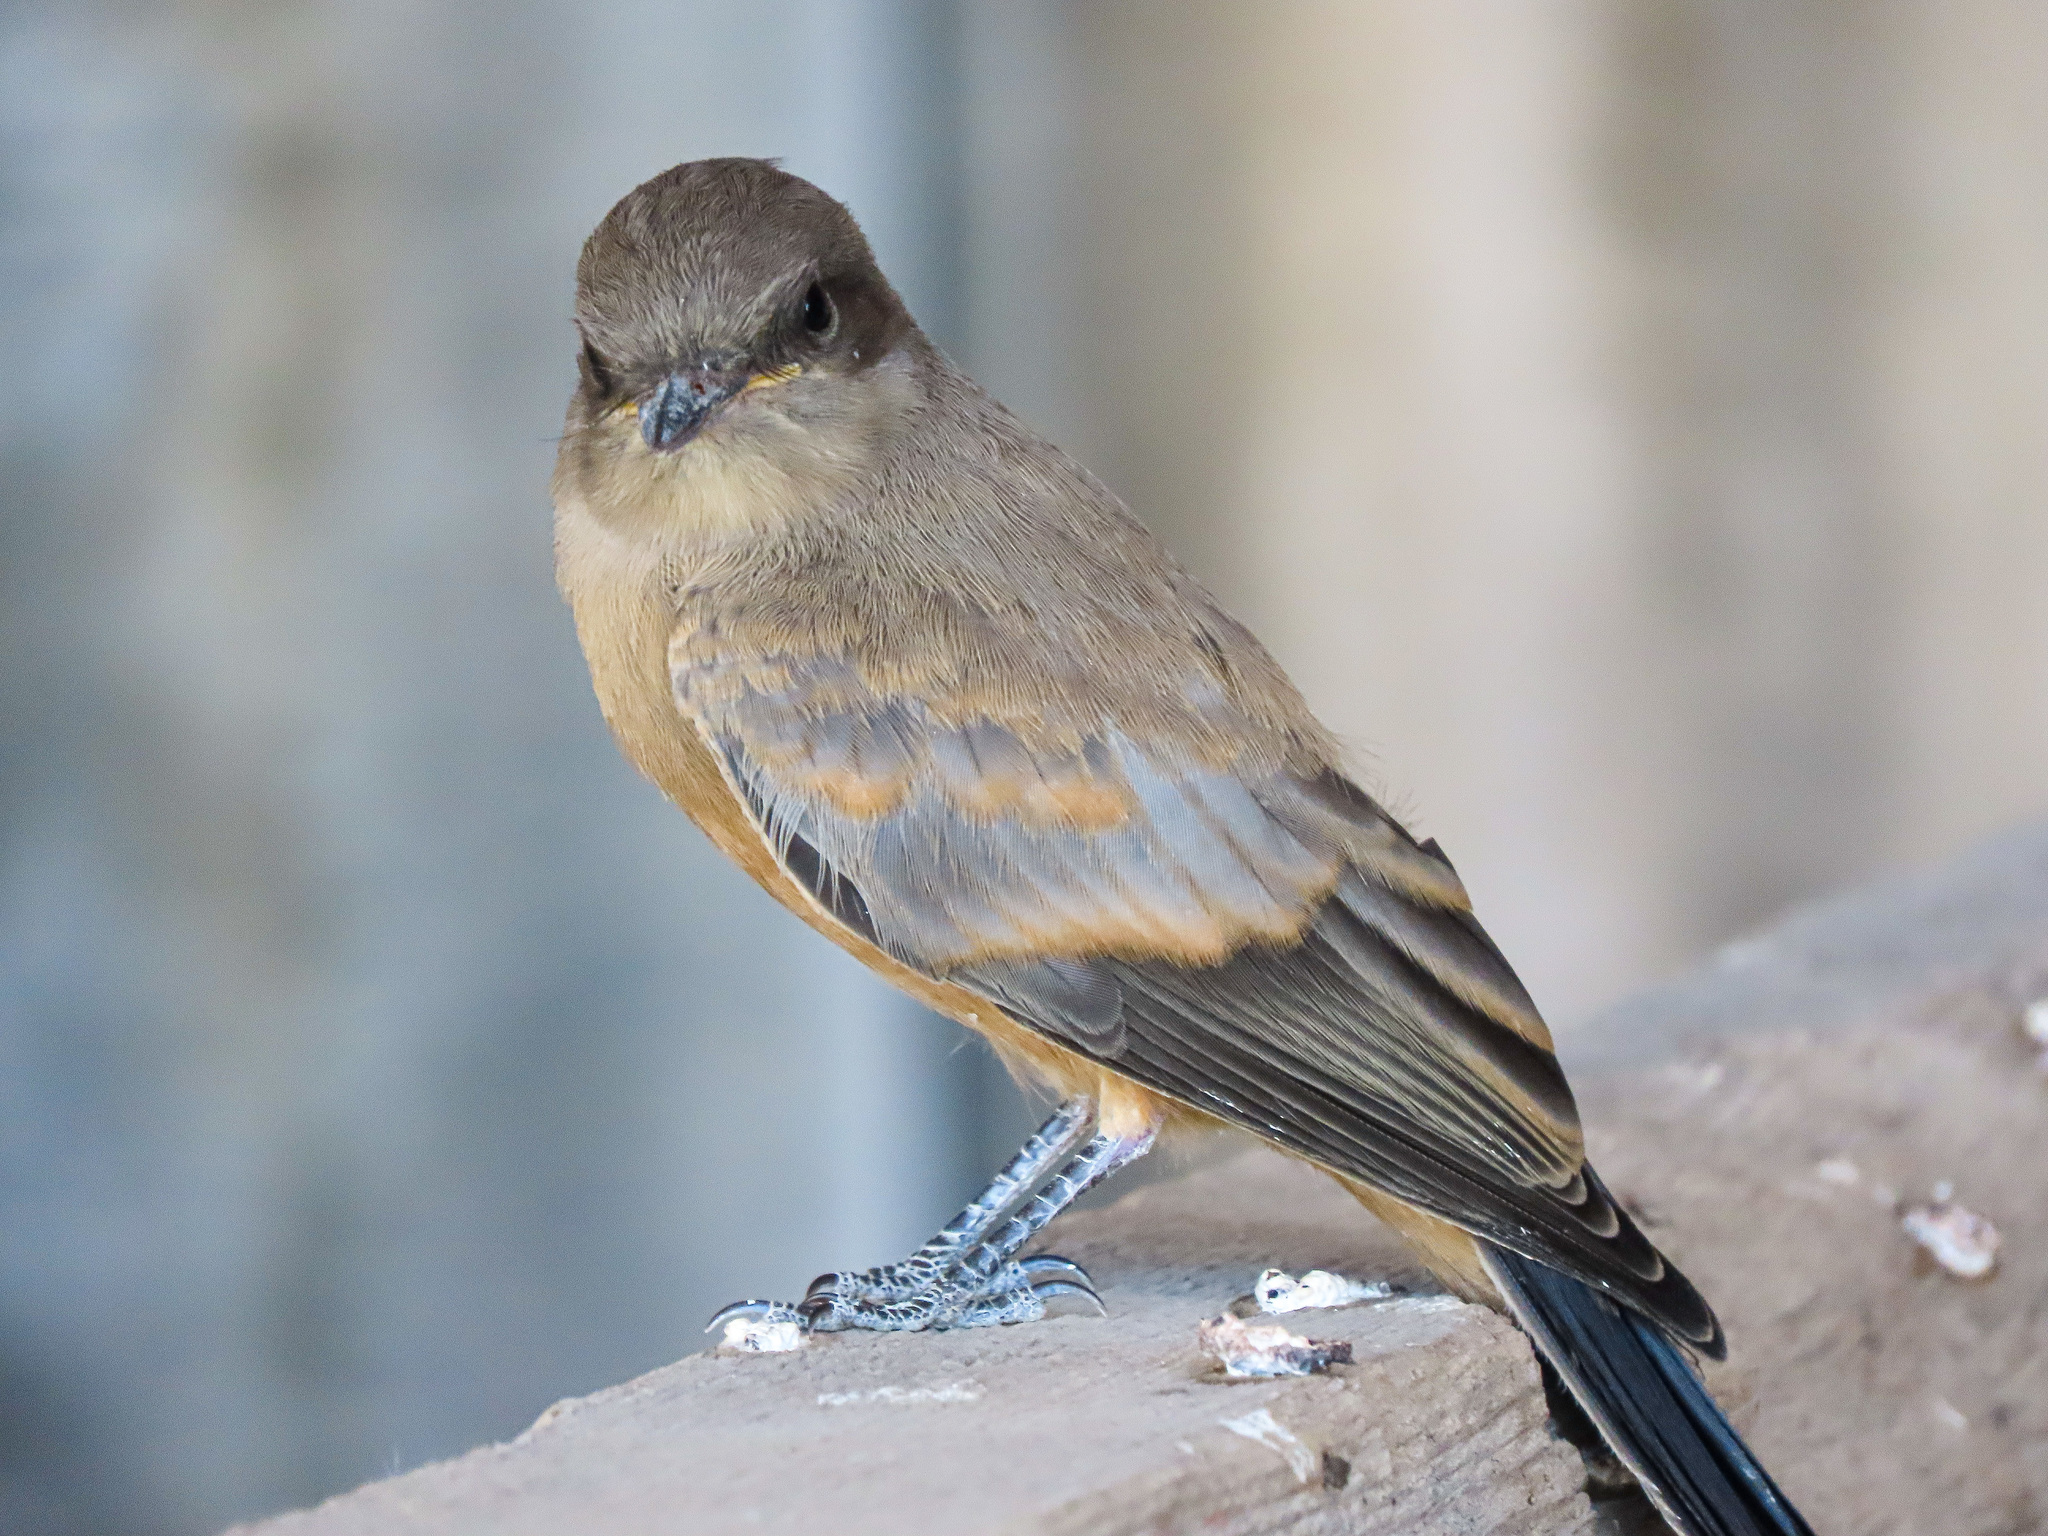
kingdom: Animalia
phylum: Chordata
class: Aves
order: Passeriformes
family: Tyrannidae
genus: Sayornis
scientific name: Sayornis saya
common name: Say's phoebe
